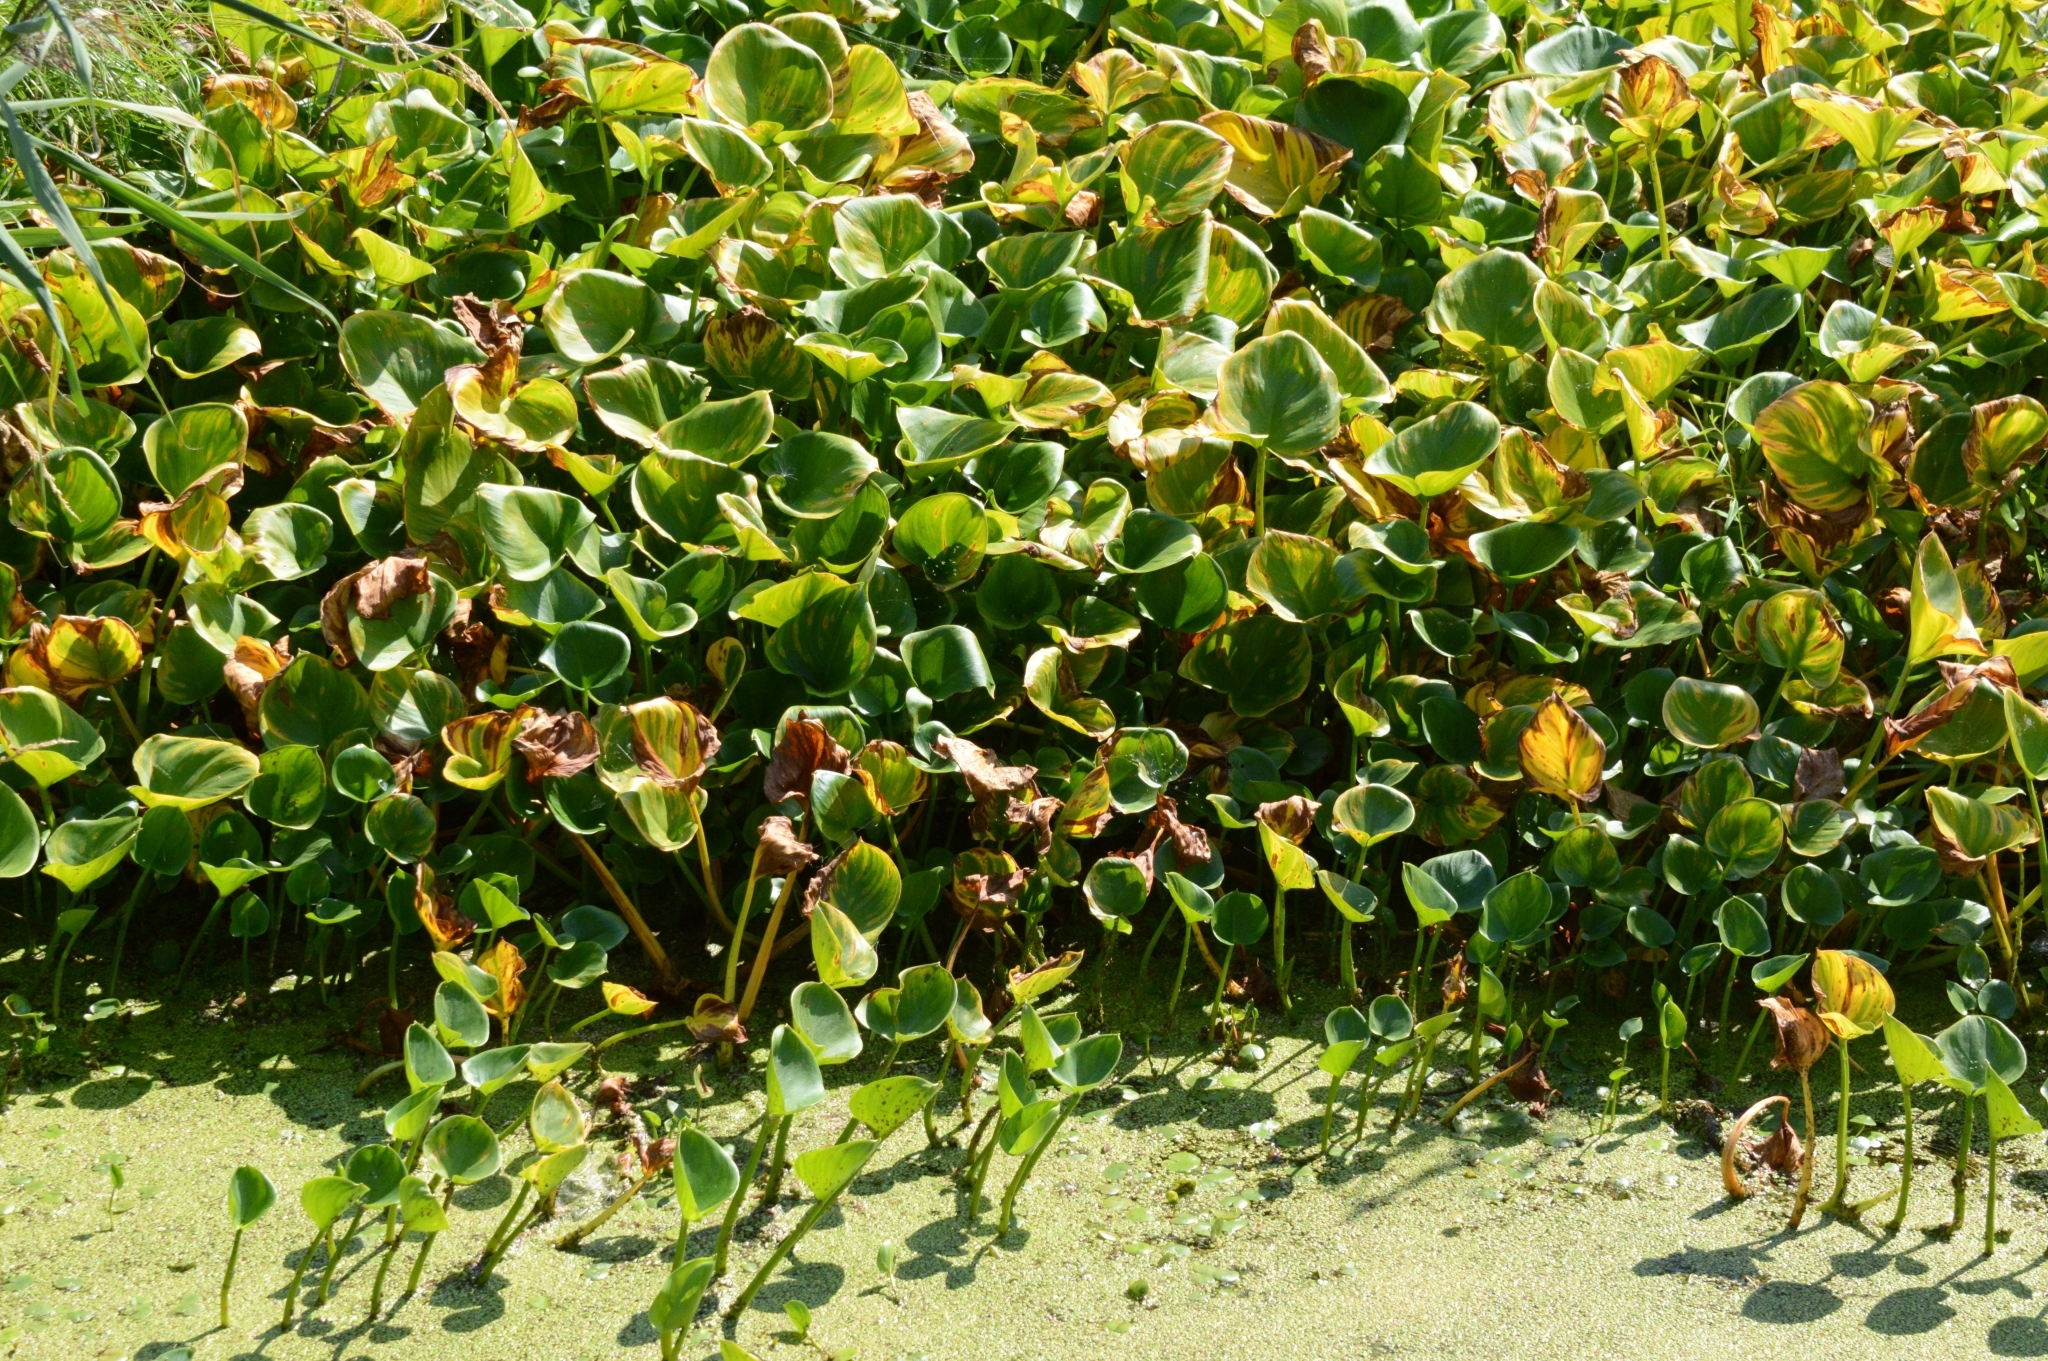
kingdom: Plantae
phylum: Tracheophyta
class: Liliopsida
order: Alismatales
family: Araceae
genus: Calla
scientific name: Calla palustris
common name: Bog arum
